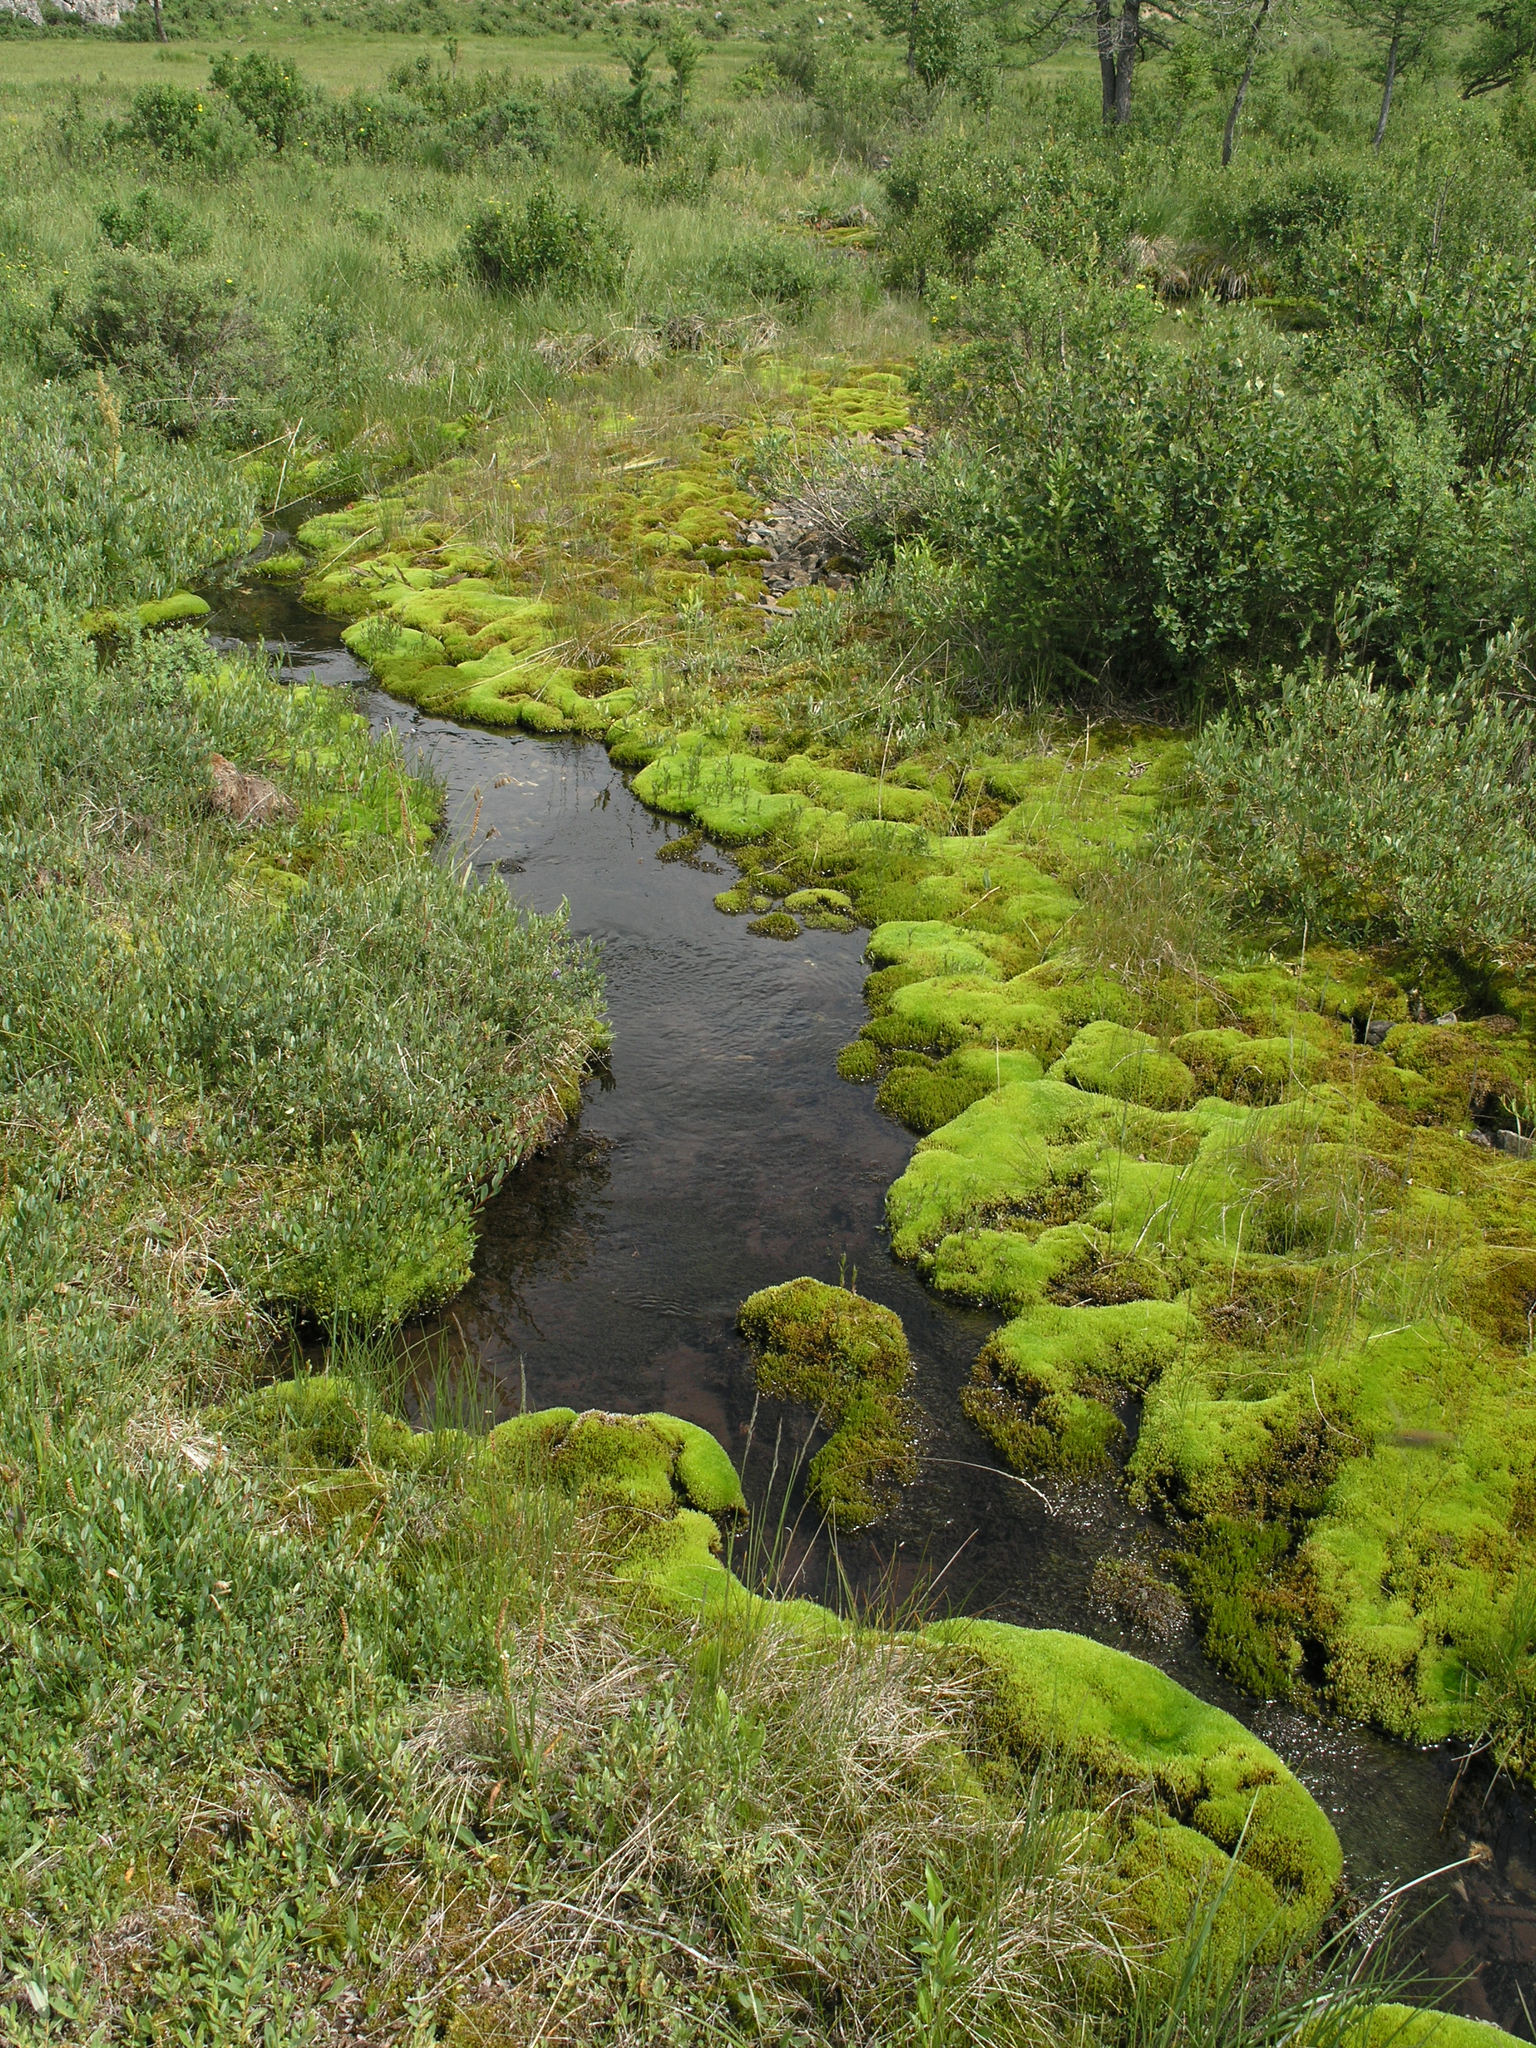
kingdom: Plantae
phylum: Tracheophyta
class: Pinopsida
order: Pinales
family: Pinaceae
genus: Larix
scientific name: Larix sibirica
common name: Siberian larch
